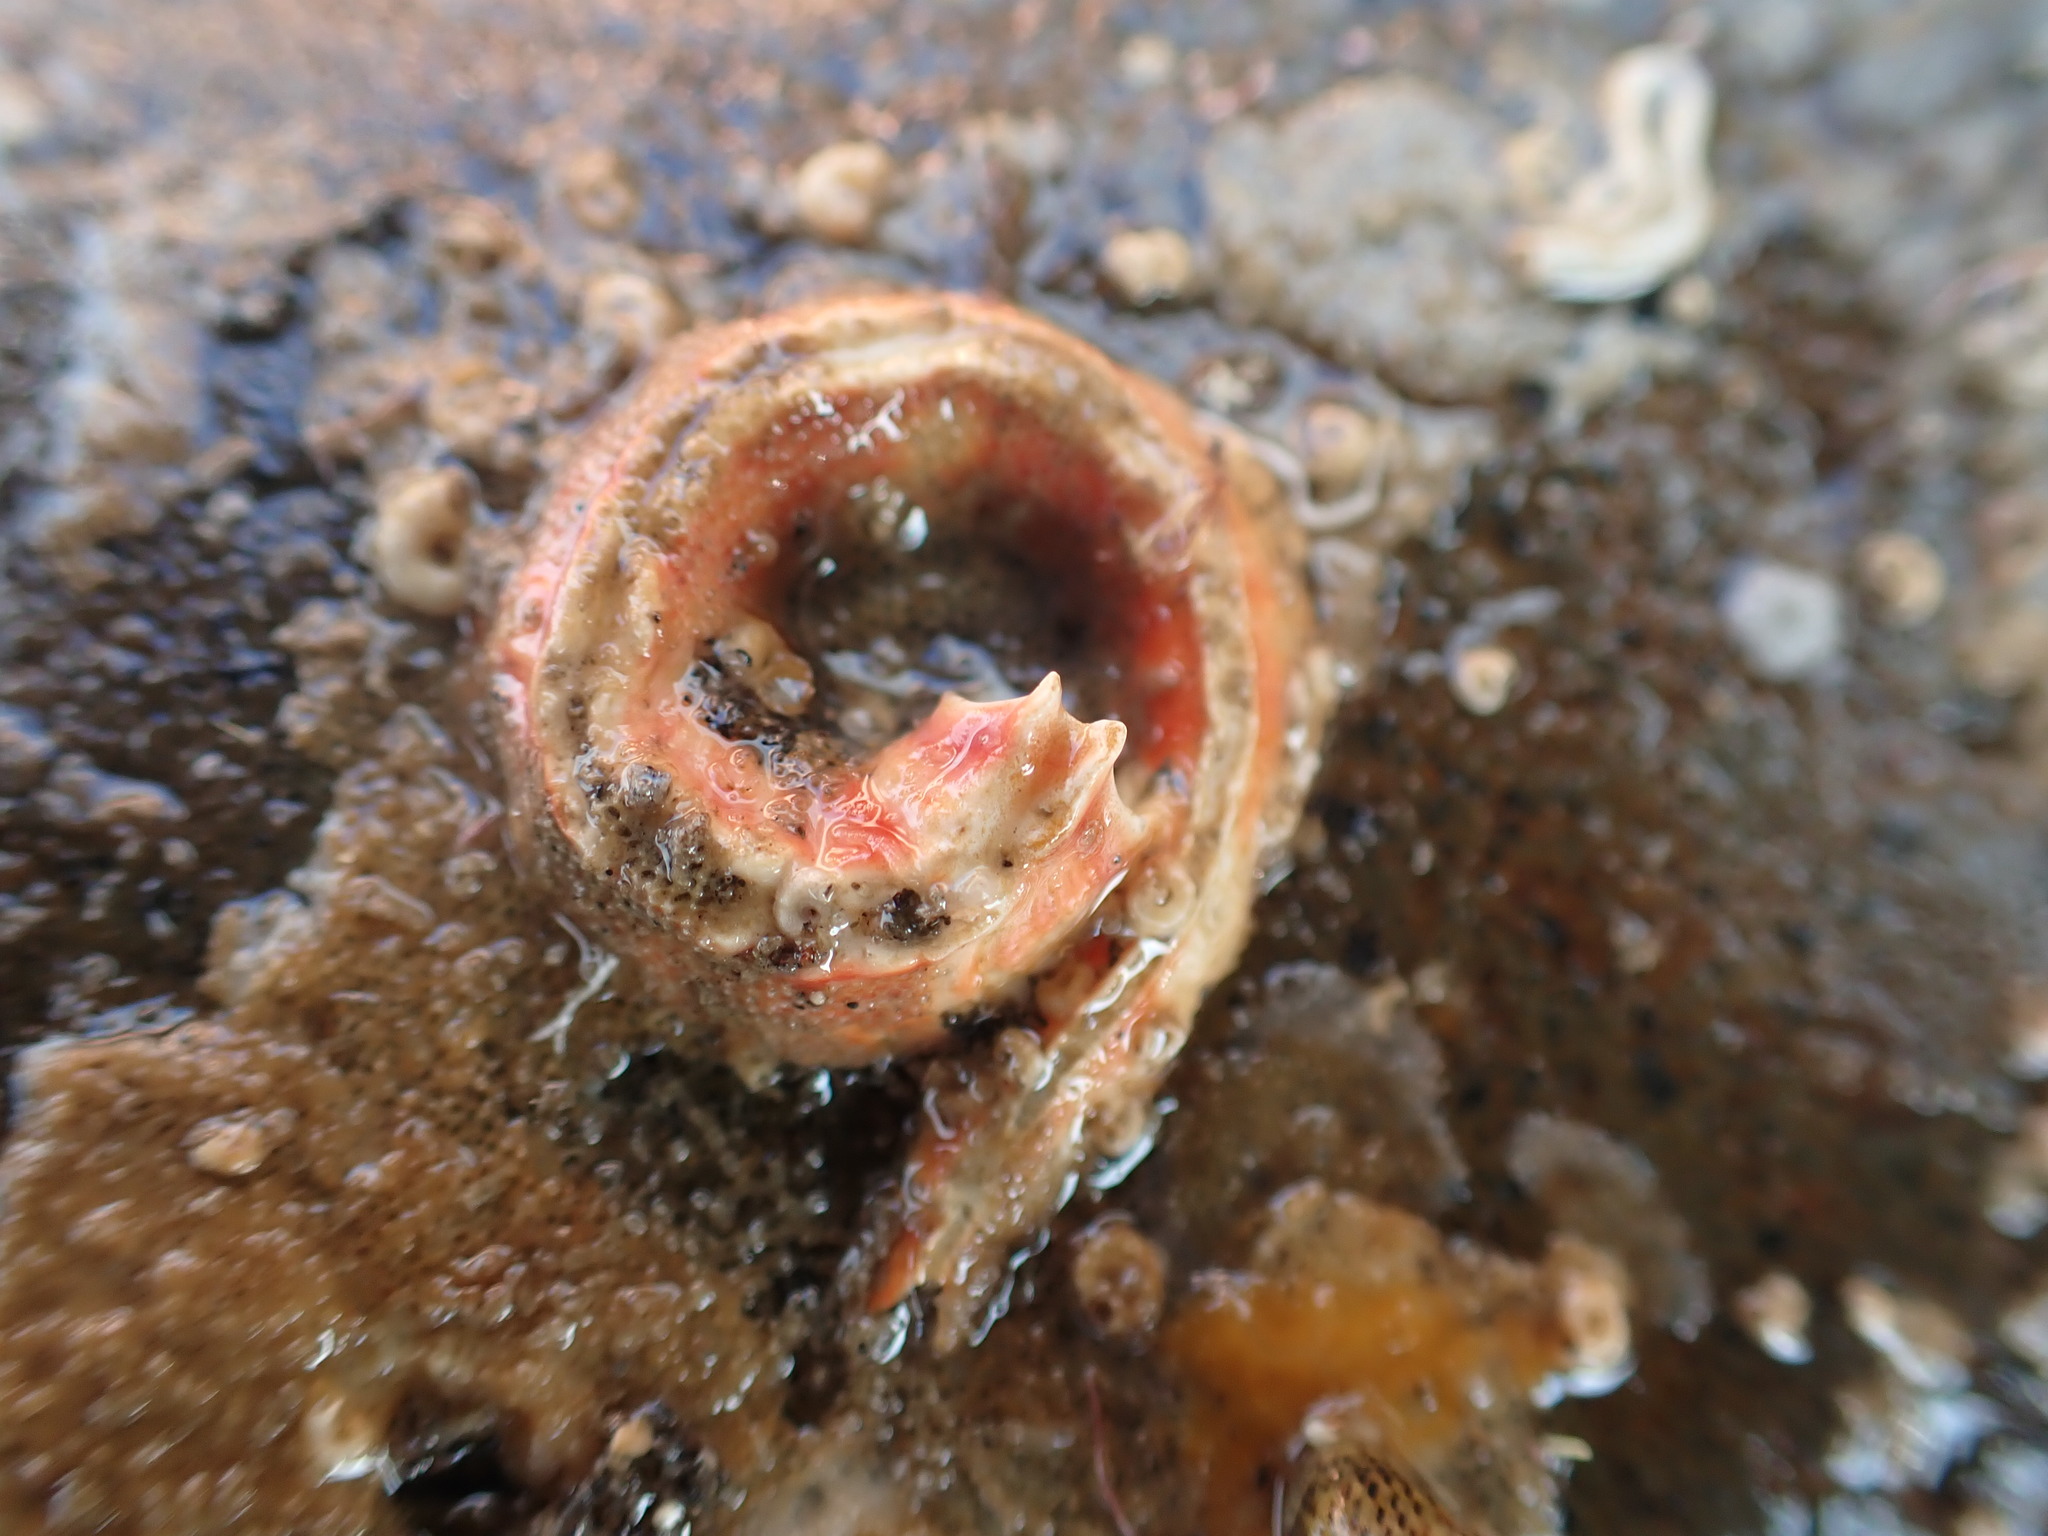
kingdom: Animalia
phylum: Annelida
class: Polychaeta
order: Sabellida
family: Serpulidae
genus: Galeolaria
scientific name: Galeolaria hystrix
